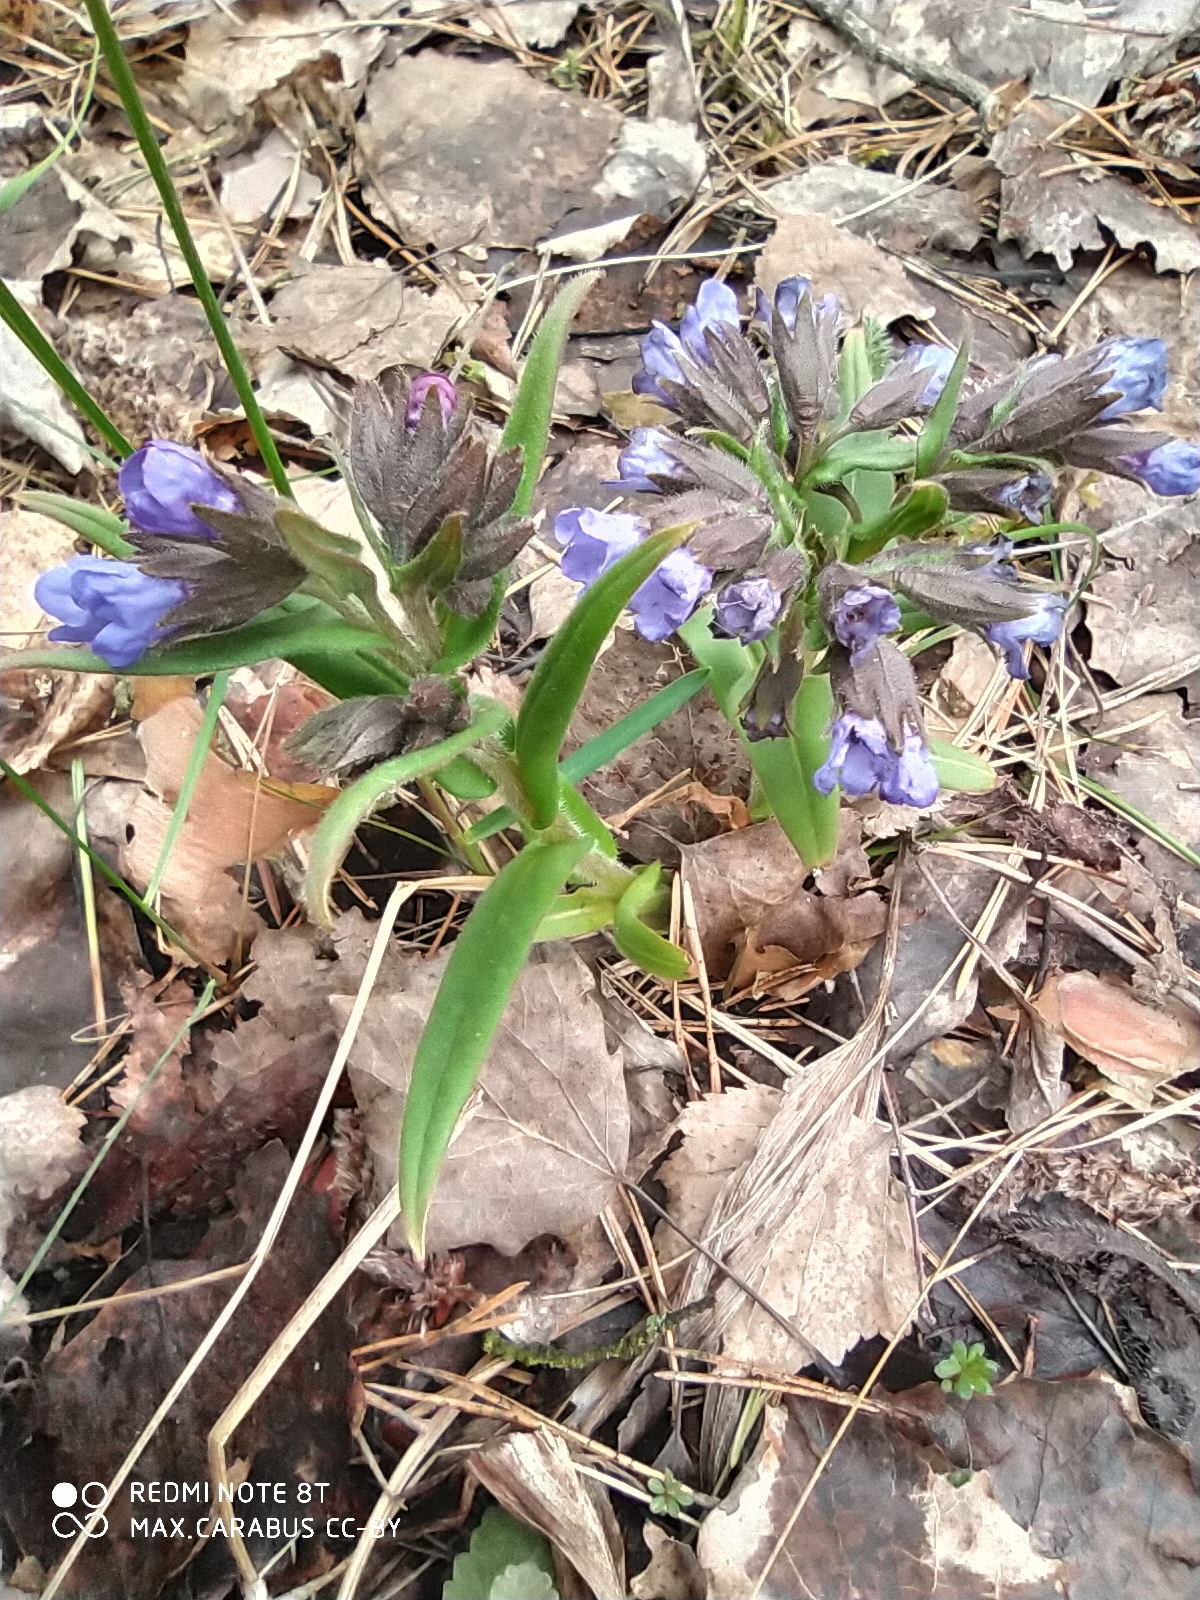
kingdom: Plantae
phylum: Tracheophyta
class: Magnoliopsida
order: Boraginales
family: Boraginaceae
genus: Pulmonaria
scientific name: Pulmonaria angustifolia
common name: Blue cowslip
